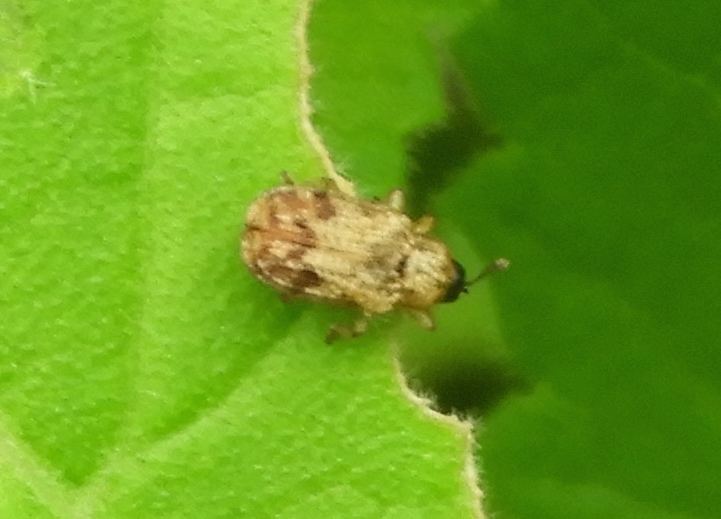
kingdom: Animalia
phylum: Arthropoda
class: Insecta
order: Coleoptera
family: Chrysomelidae
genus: Brachycoryna
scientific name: Brachycoryna pumila
